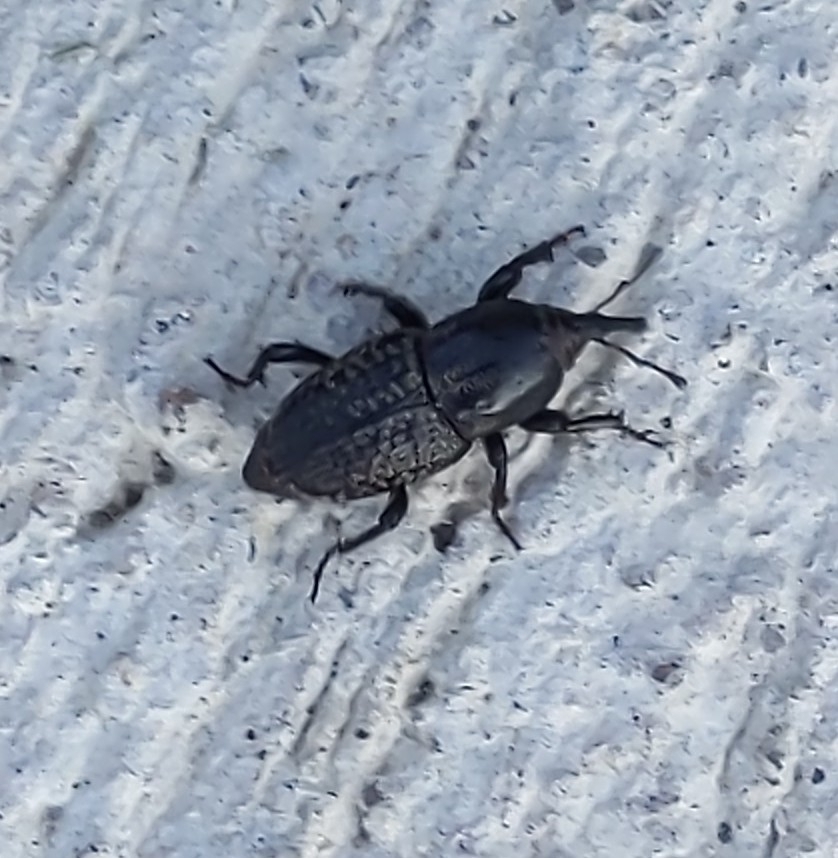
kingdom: Animalia
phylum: Arthropoda
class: Insecta
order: Coleoptera
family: Dryophthoridae
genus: Sphenophorus
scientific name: Sphenophorus cicatristriatus
